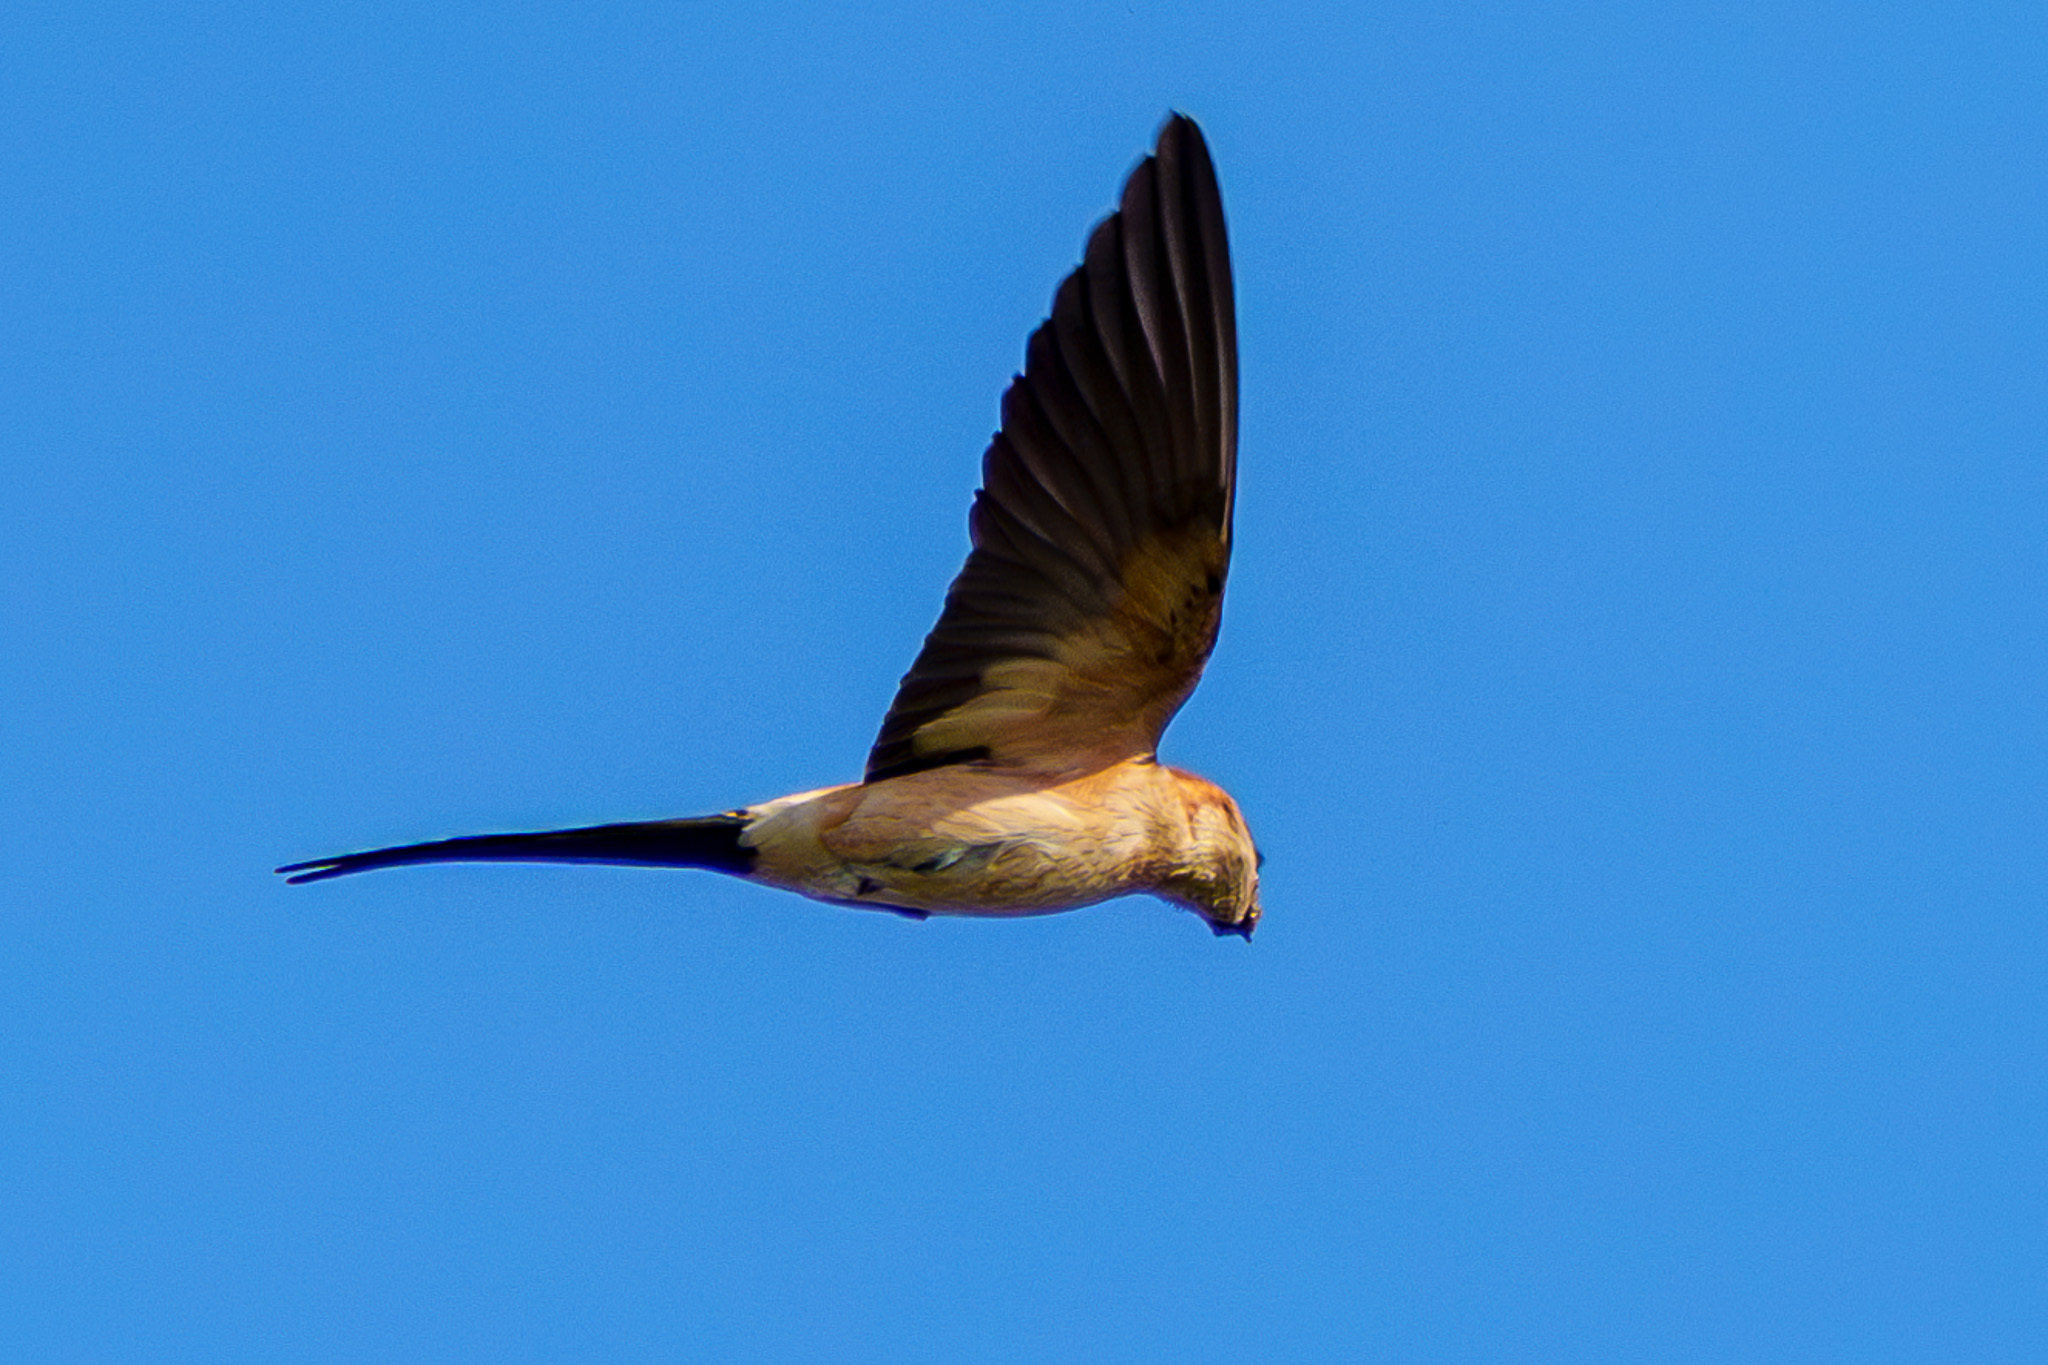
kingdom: Animalia
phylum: Chordata
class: Aves
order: Passeriformes
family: Hirundinidae
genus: Cecropis
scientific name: Cecropis daurica
